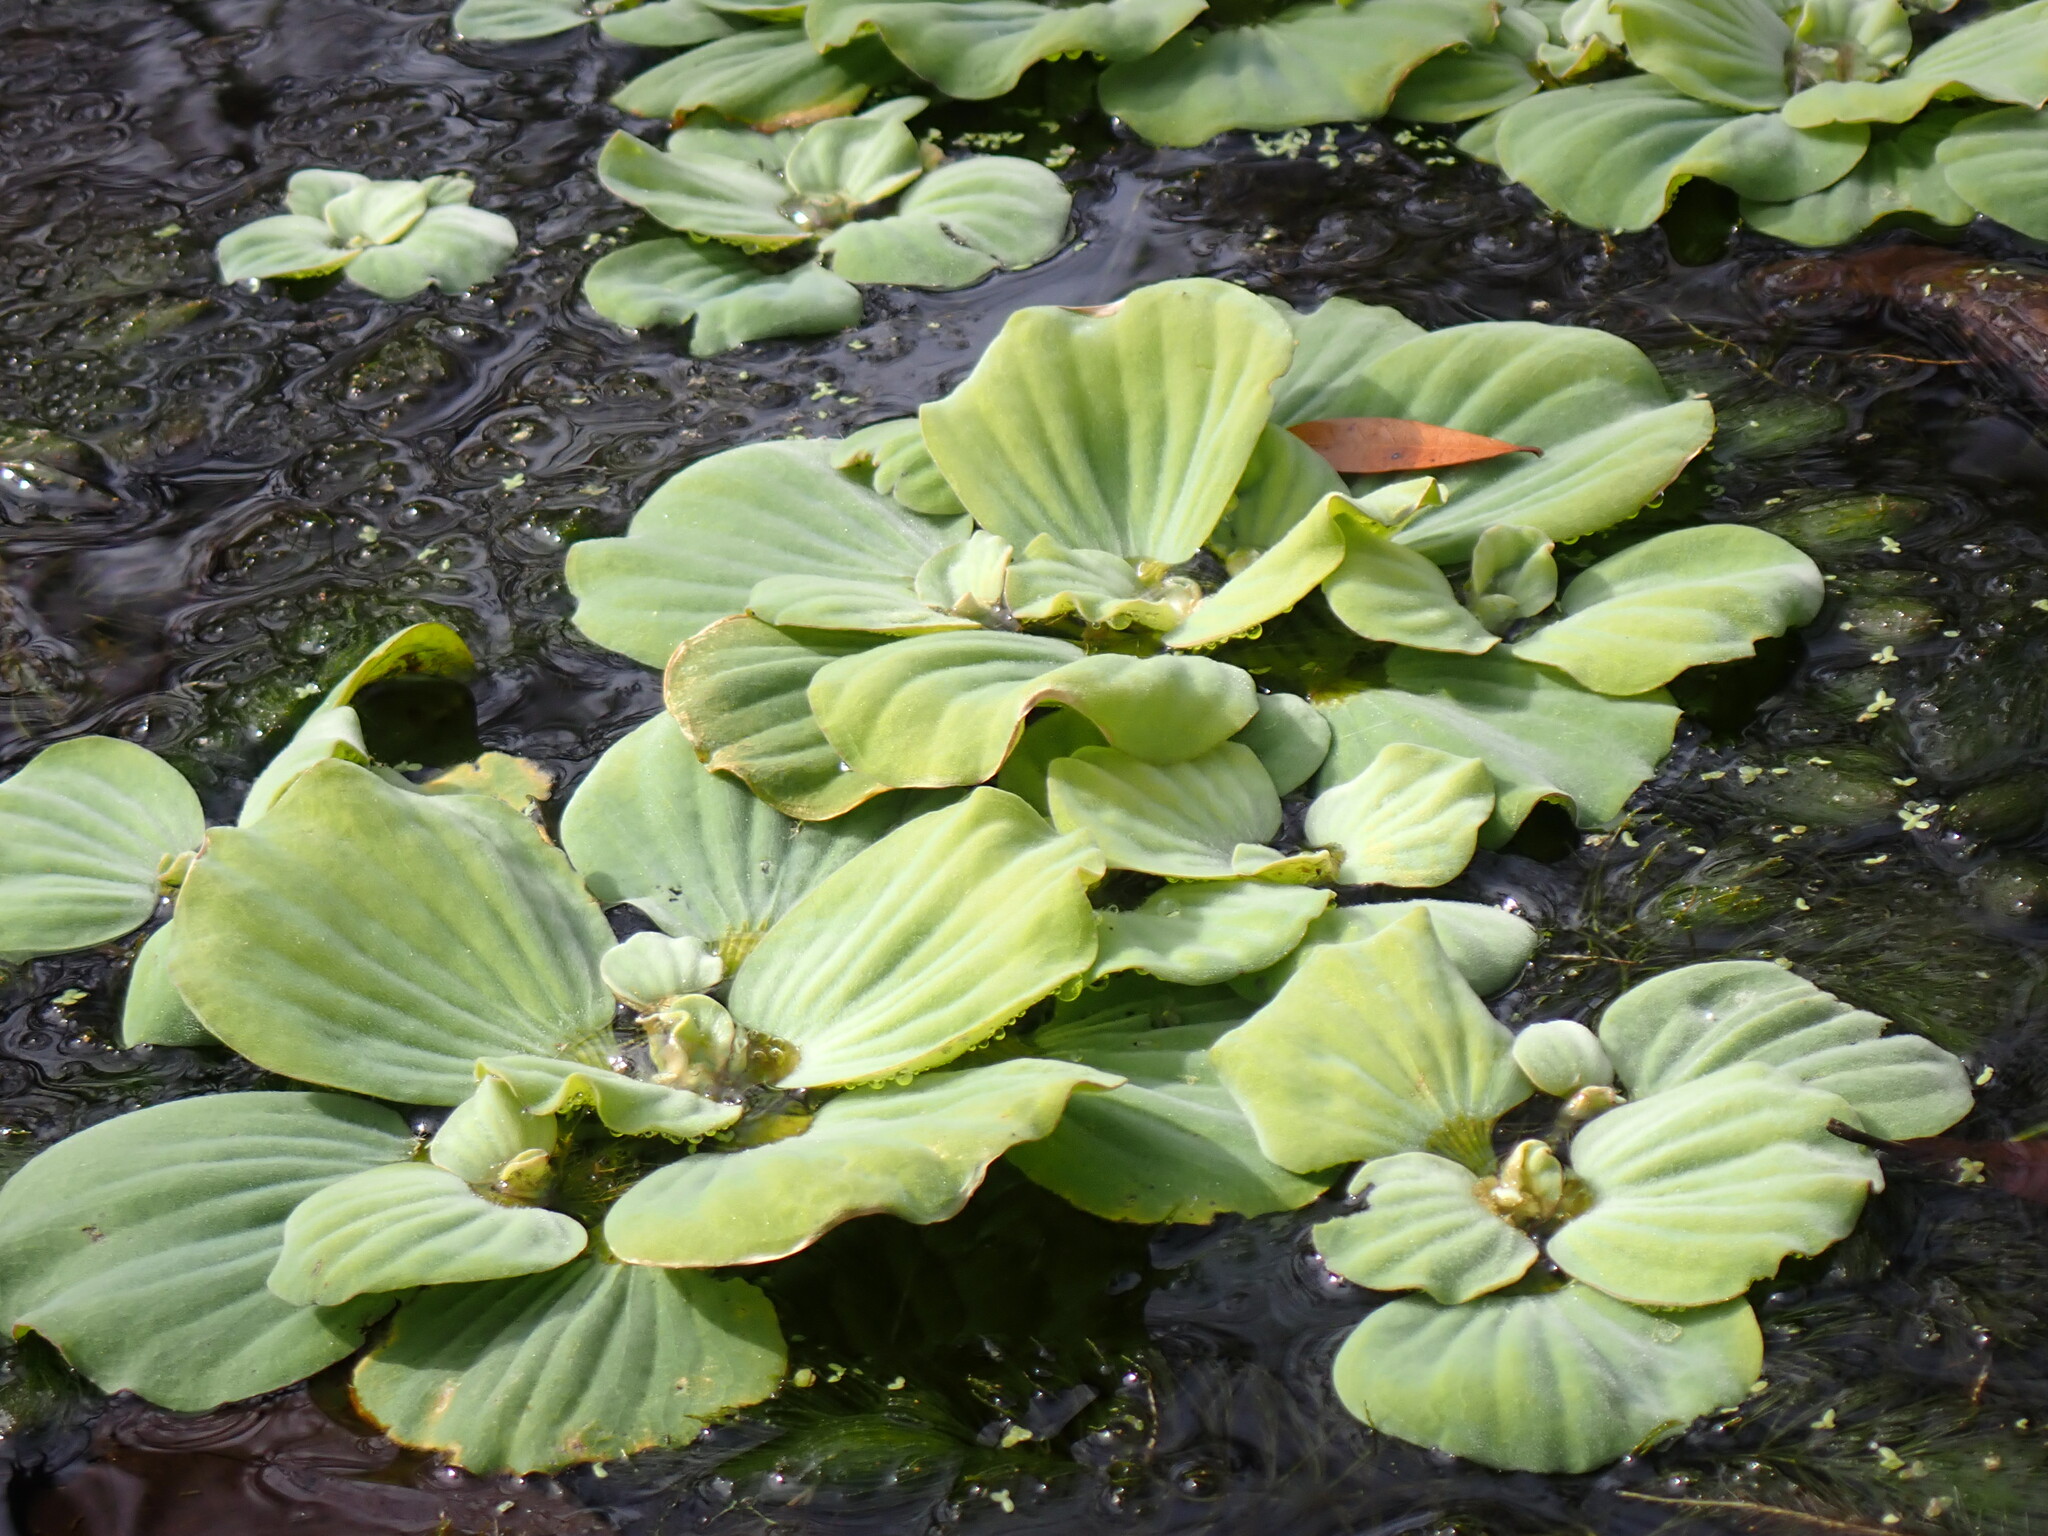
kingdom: Plantae
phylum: Tracheophyta
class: Liliopsida
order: Alismatales
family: Araceae
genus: Pistia
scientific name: Pistia stratiotes
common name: Water lettuce
